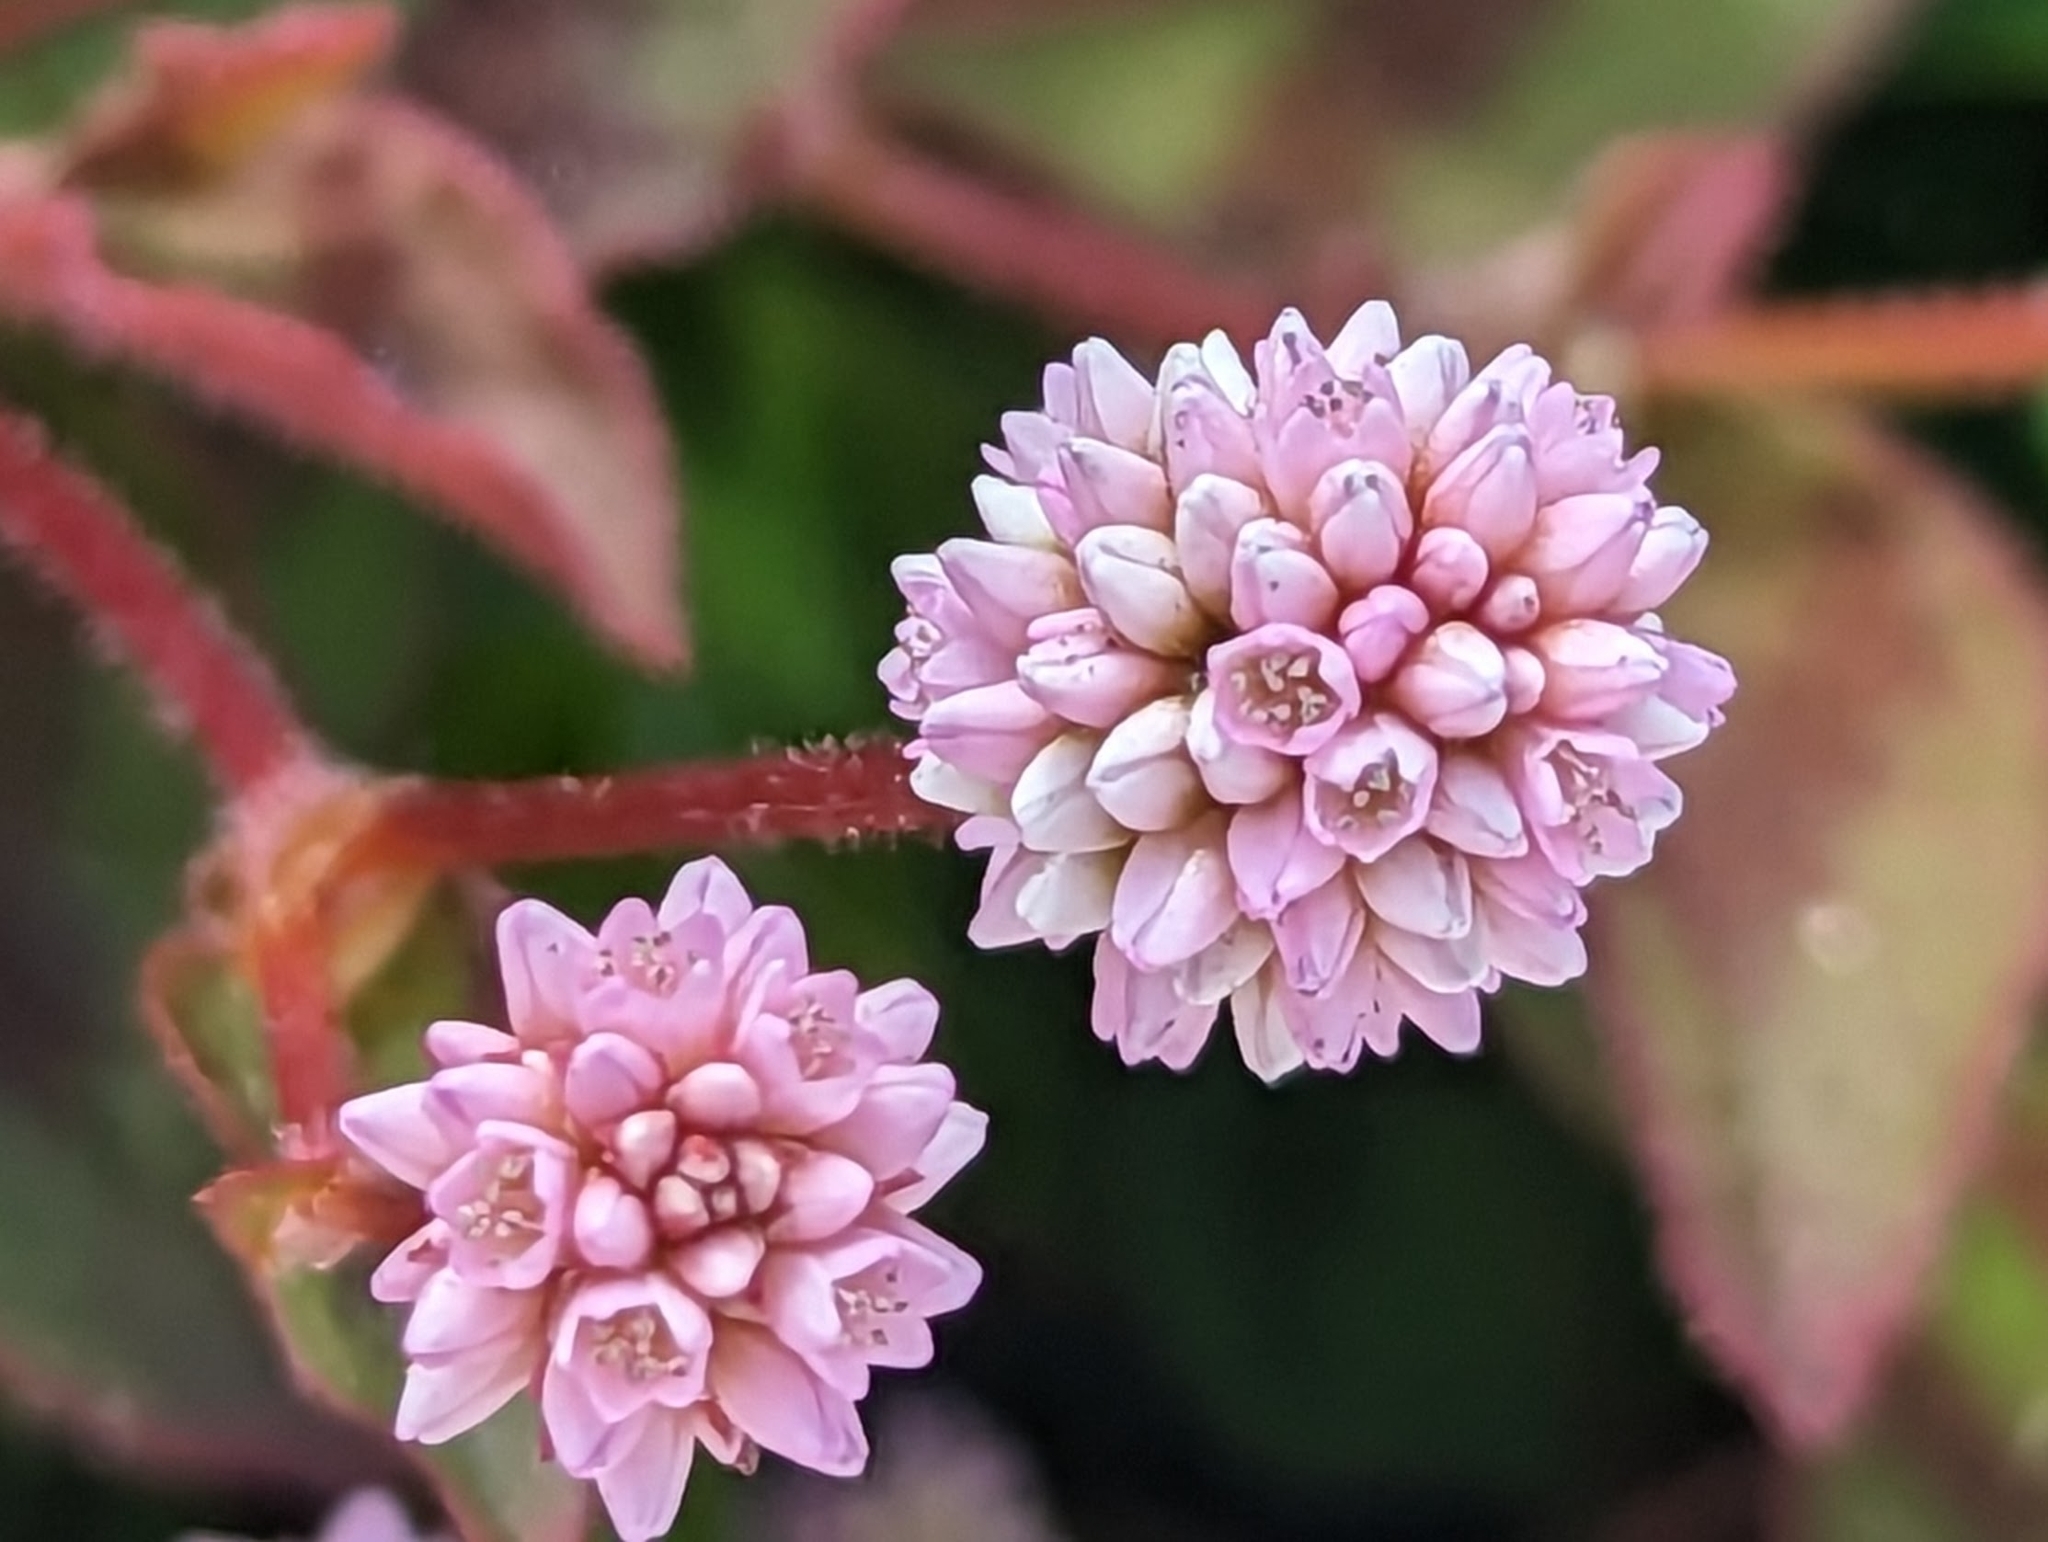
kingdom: Plantae
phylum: Tracheophyta
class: Magnoliopsida
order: Caryophyllales
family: Polygonaceae
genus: Persicaria
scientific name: Persicaria capitata
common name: Pinkhead smartweed
